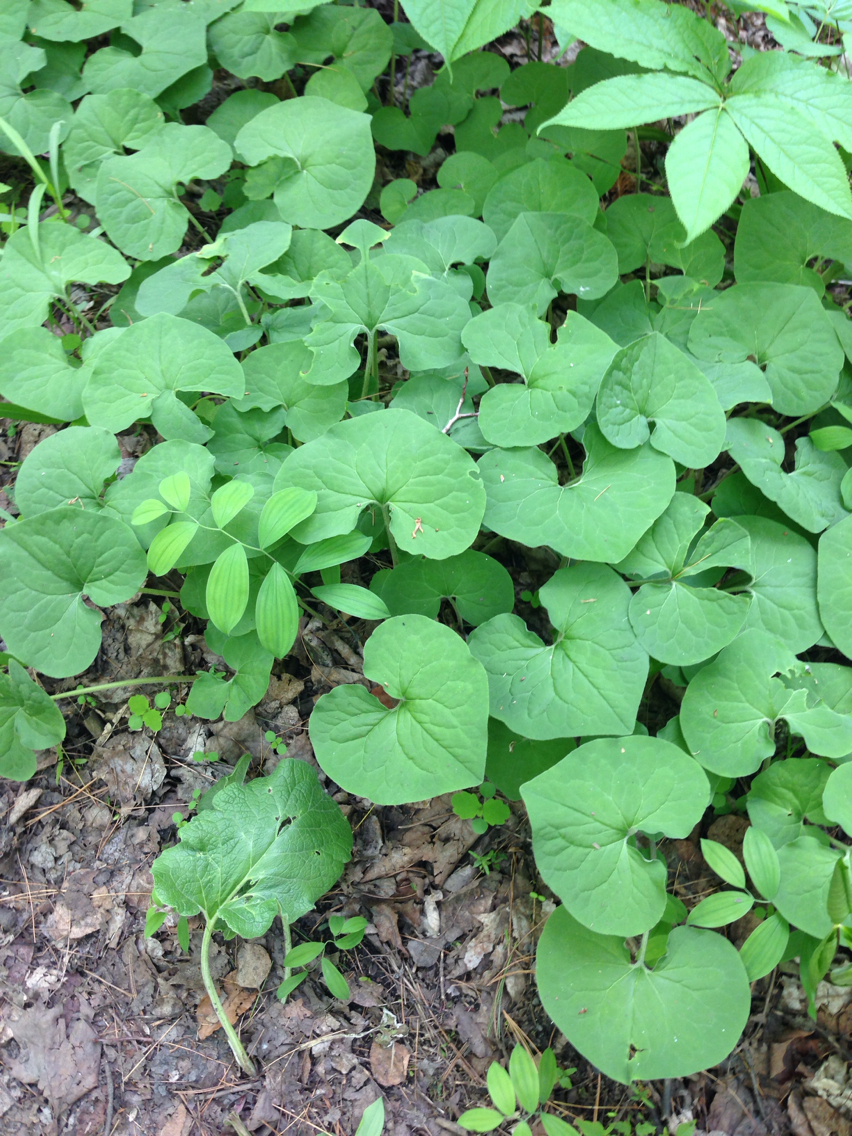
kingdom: Plantae
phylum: Tracheophyta
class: Magnoliopsida
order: Piperales
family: Aristolochiaceae
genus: Asarum
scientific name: Asarum canadense
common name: Wild ginger
